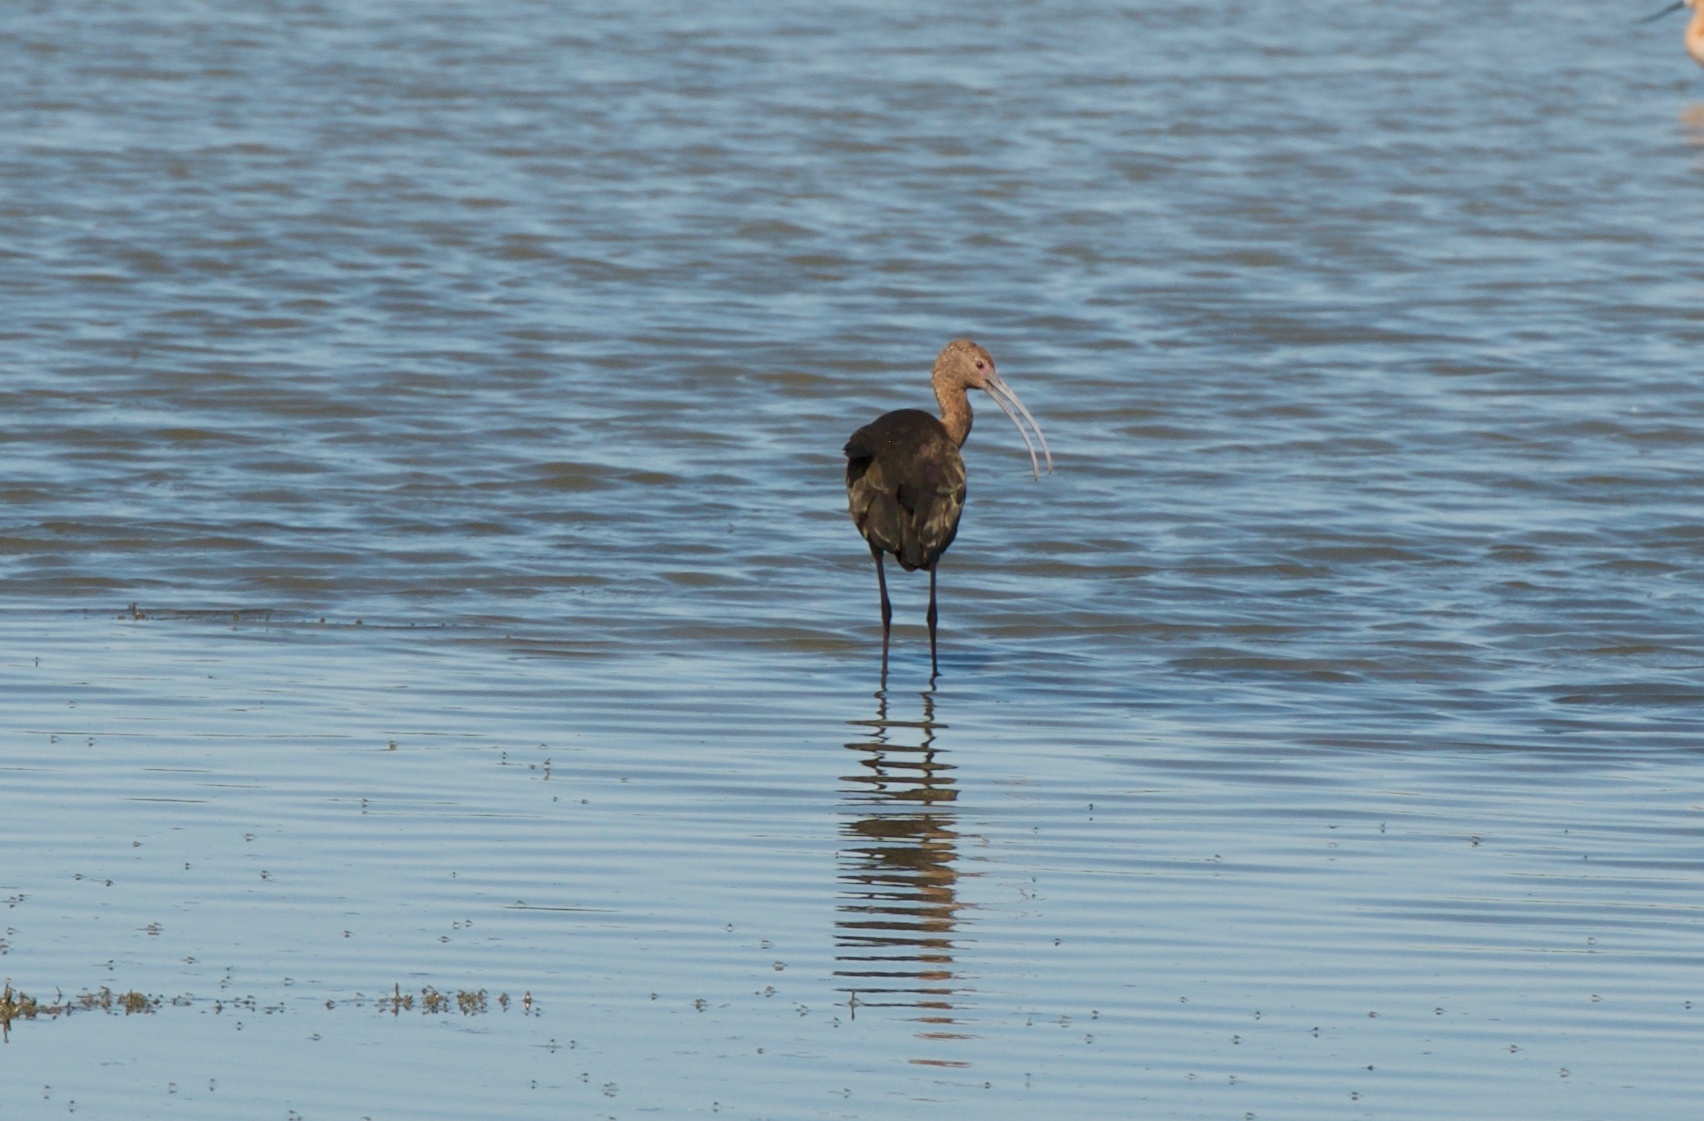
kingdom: Animalia
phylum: Chordata
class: Aves
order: Pelecaniformes
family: Threskiornithidae
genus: Plegadis
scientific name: Plegadis chihi
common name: White-faced ibis
